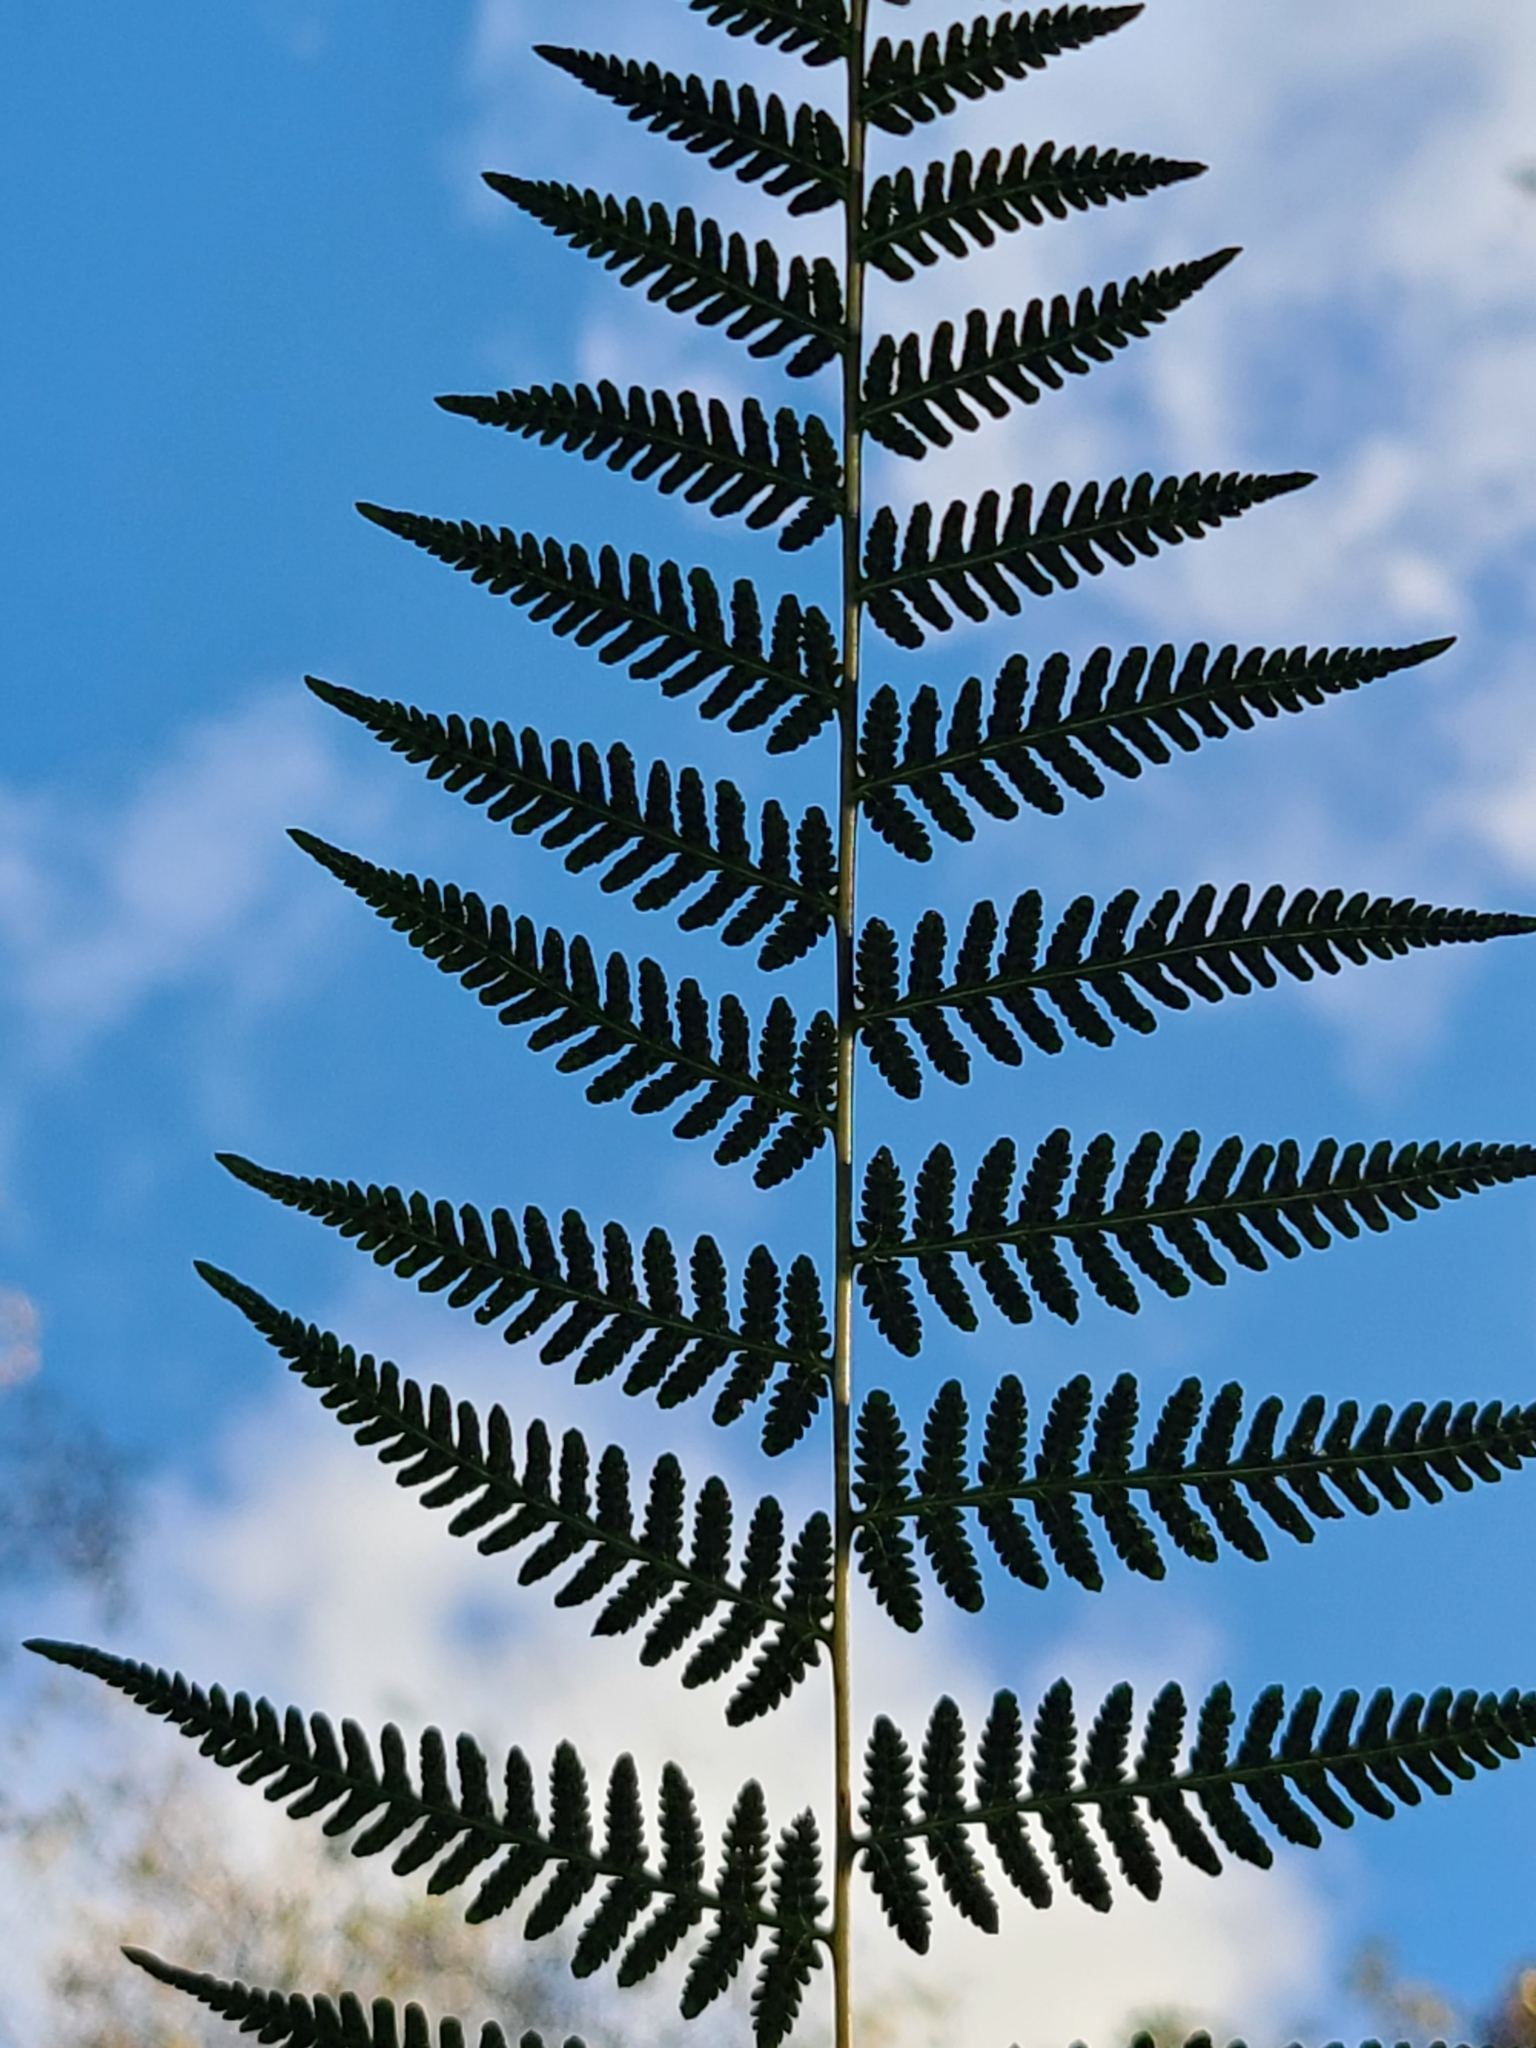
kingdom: Plantae
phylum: Tracheophyta
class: Polypodiopsida
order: Polypodiales
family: Thelypteridaceae
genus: Macrothelypteris
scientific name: Macrothelypteris torresiana
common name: Swordfern
